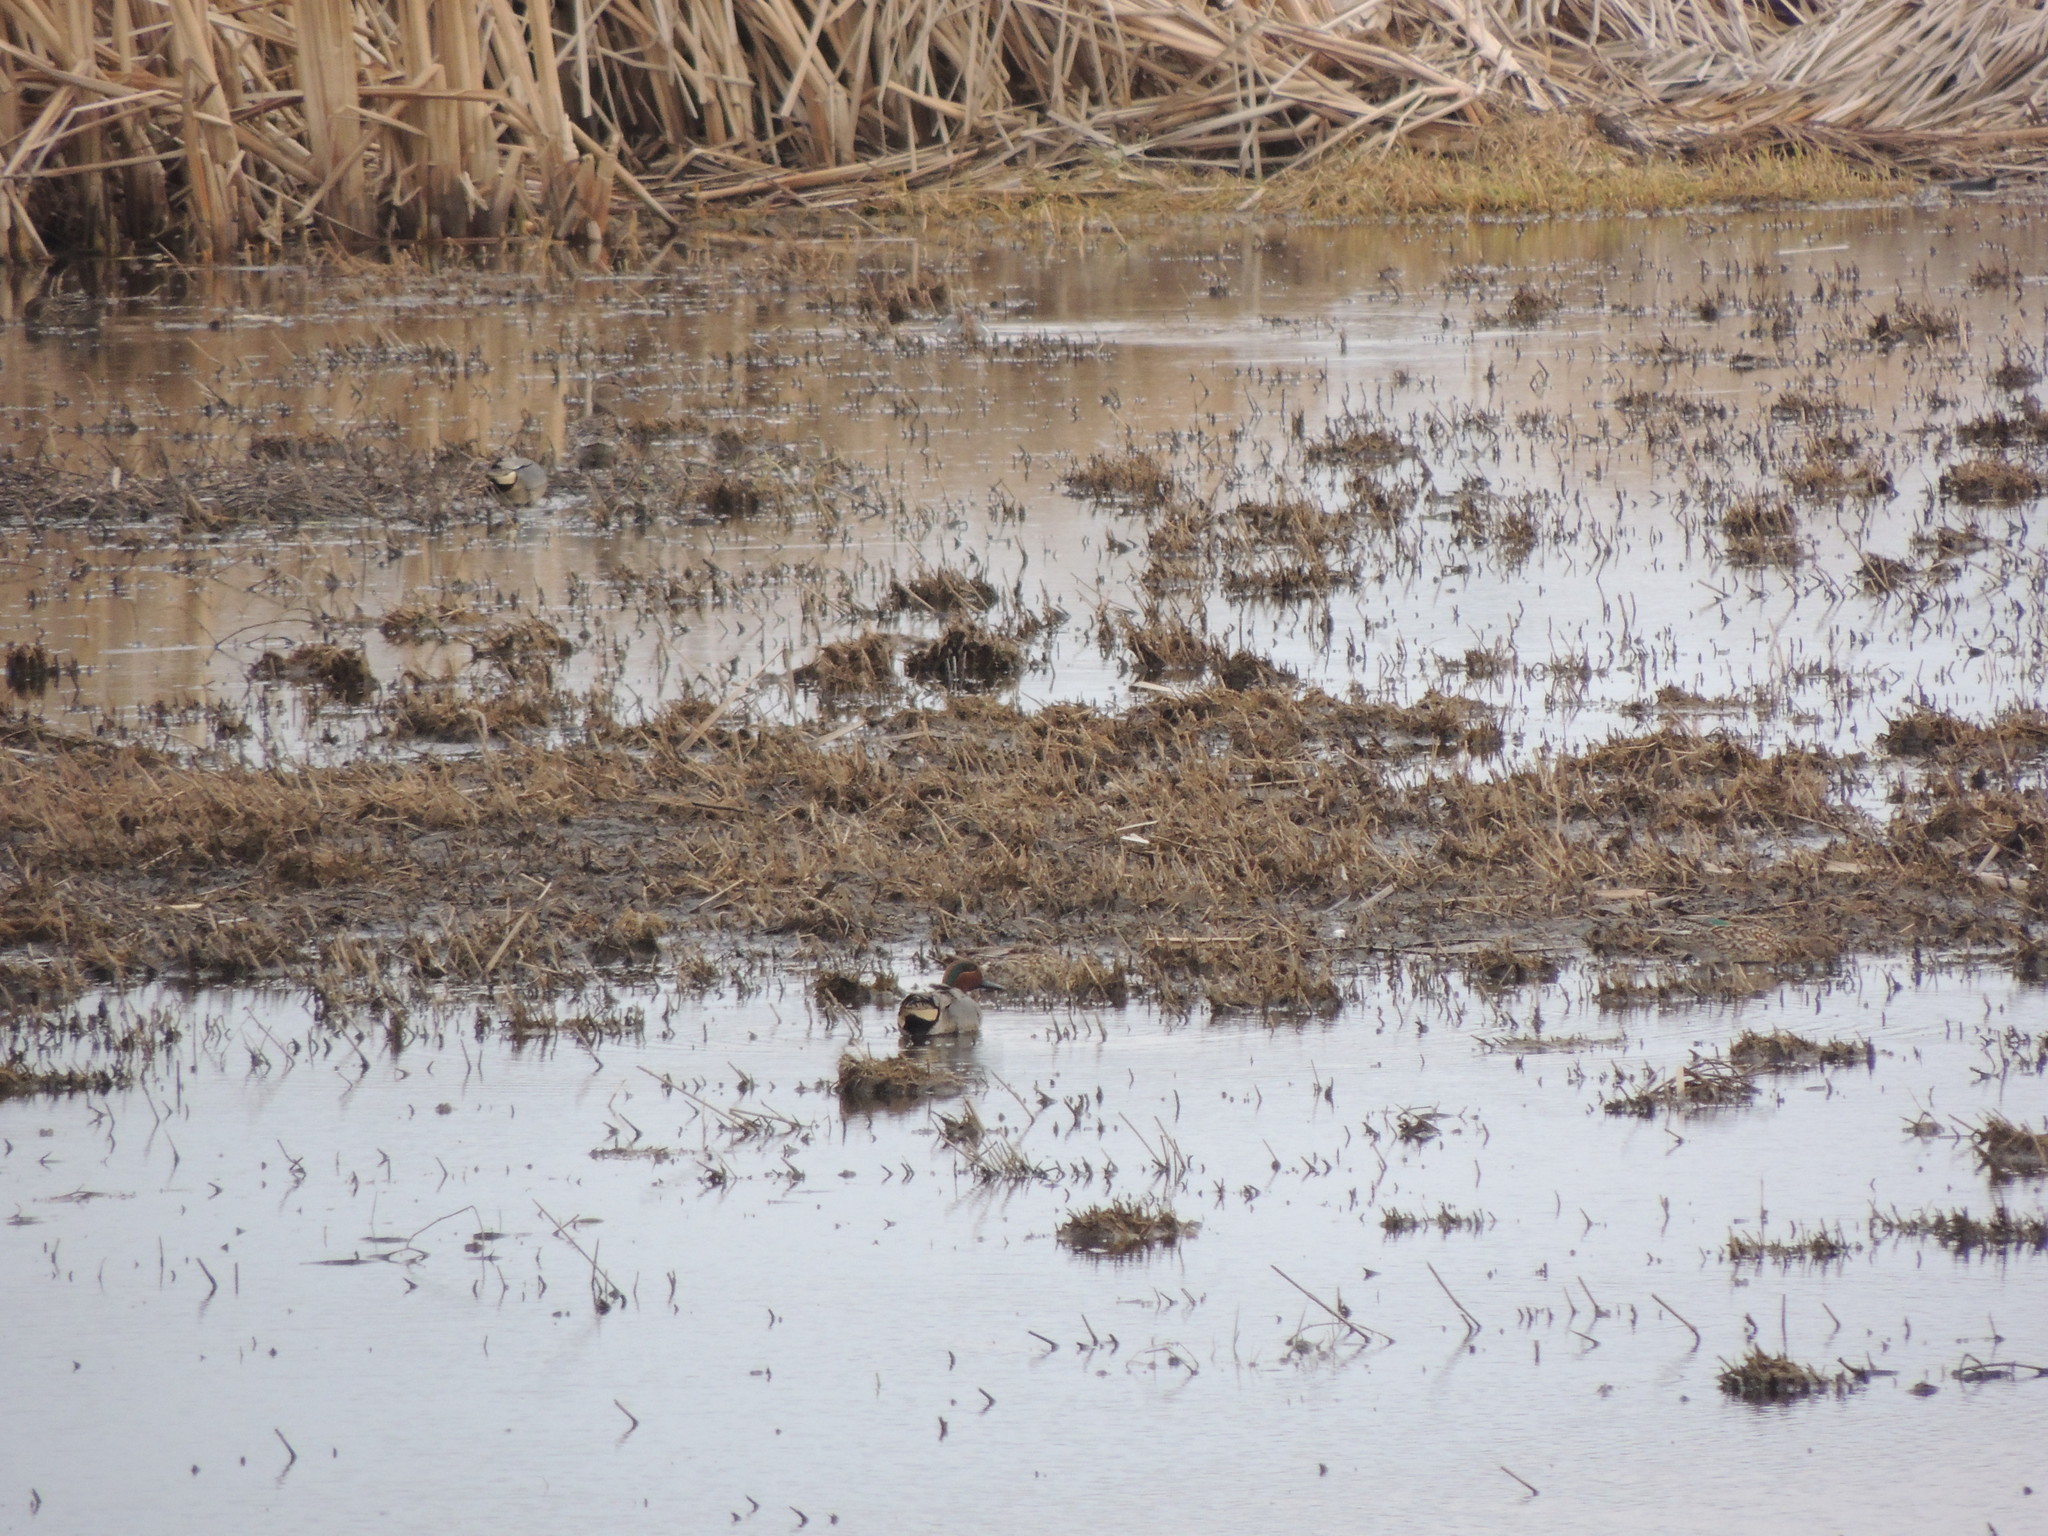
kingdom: Animalia
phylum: Chordata
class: Aves
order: Anseriformes
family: Anatidae
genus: Anas
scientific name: Anas crecca
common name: Eurasian teal
